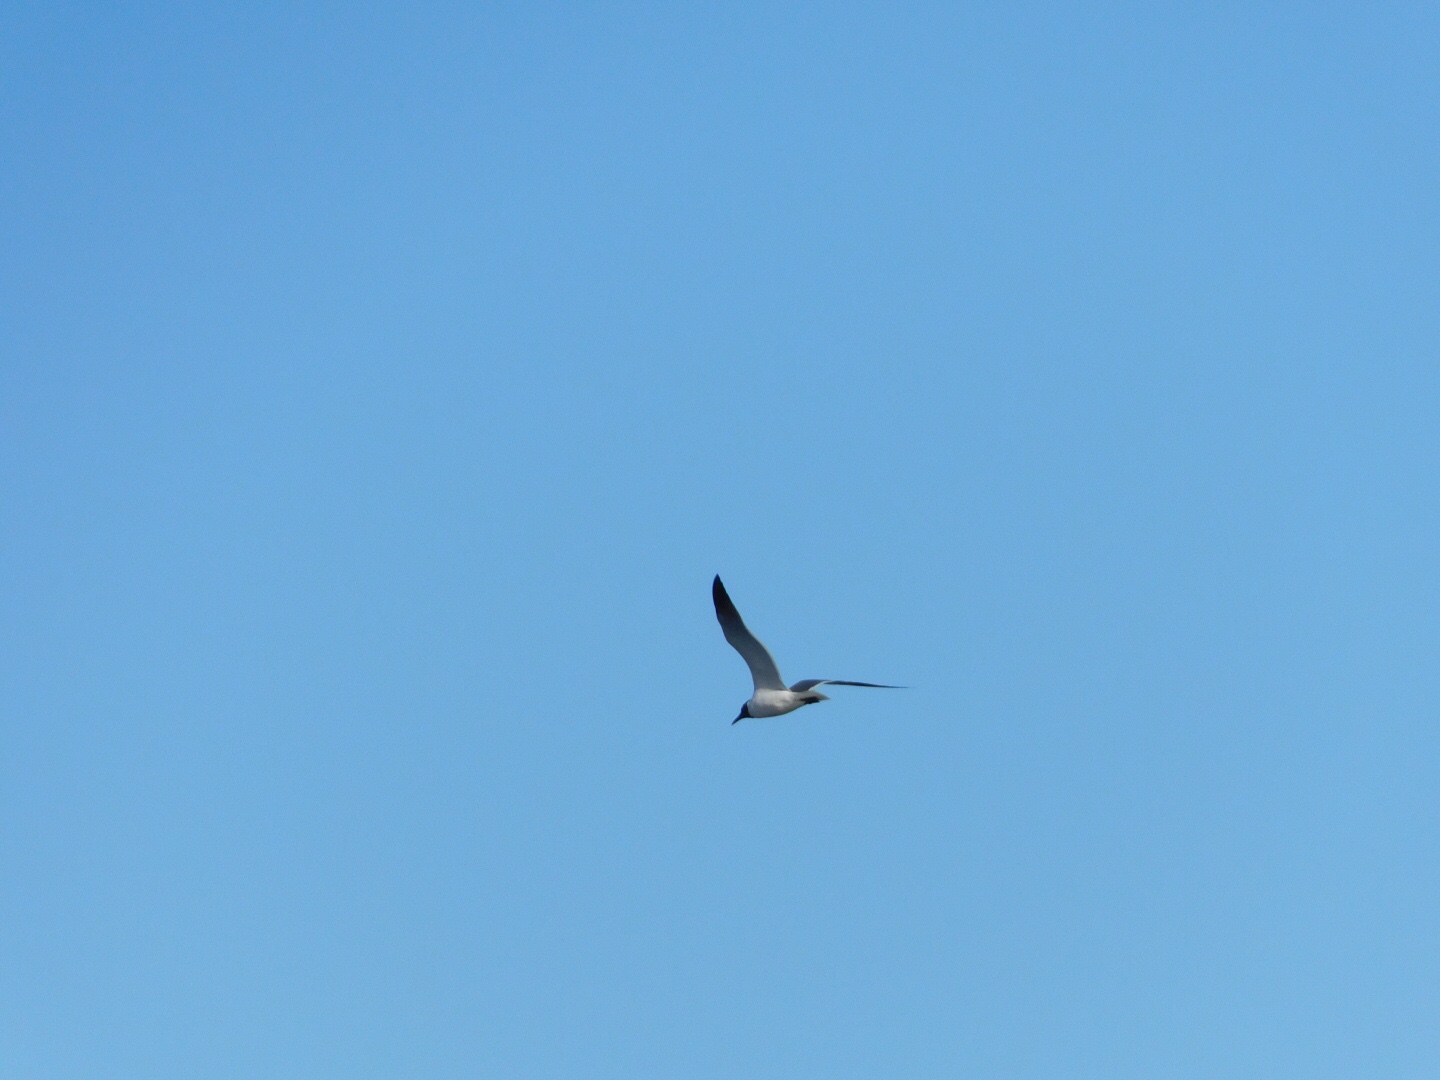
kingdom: Animalia
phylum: Chordata
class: Aves
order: Charadriiformes
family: Laridae
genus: Leucophaeus
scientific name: Leucophaeus atricilla
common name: Laughing gull
